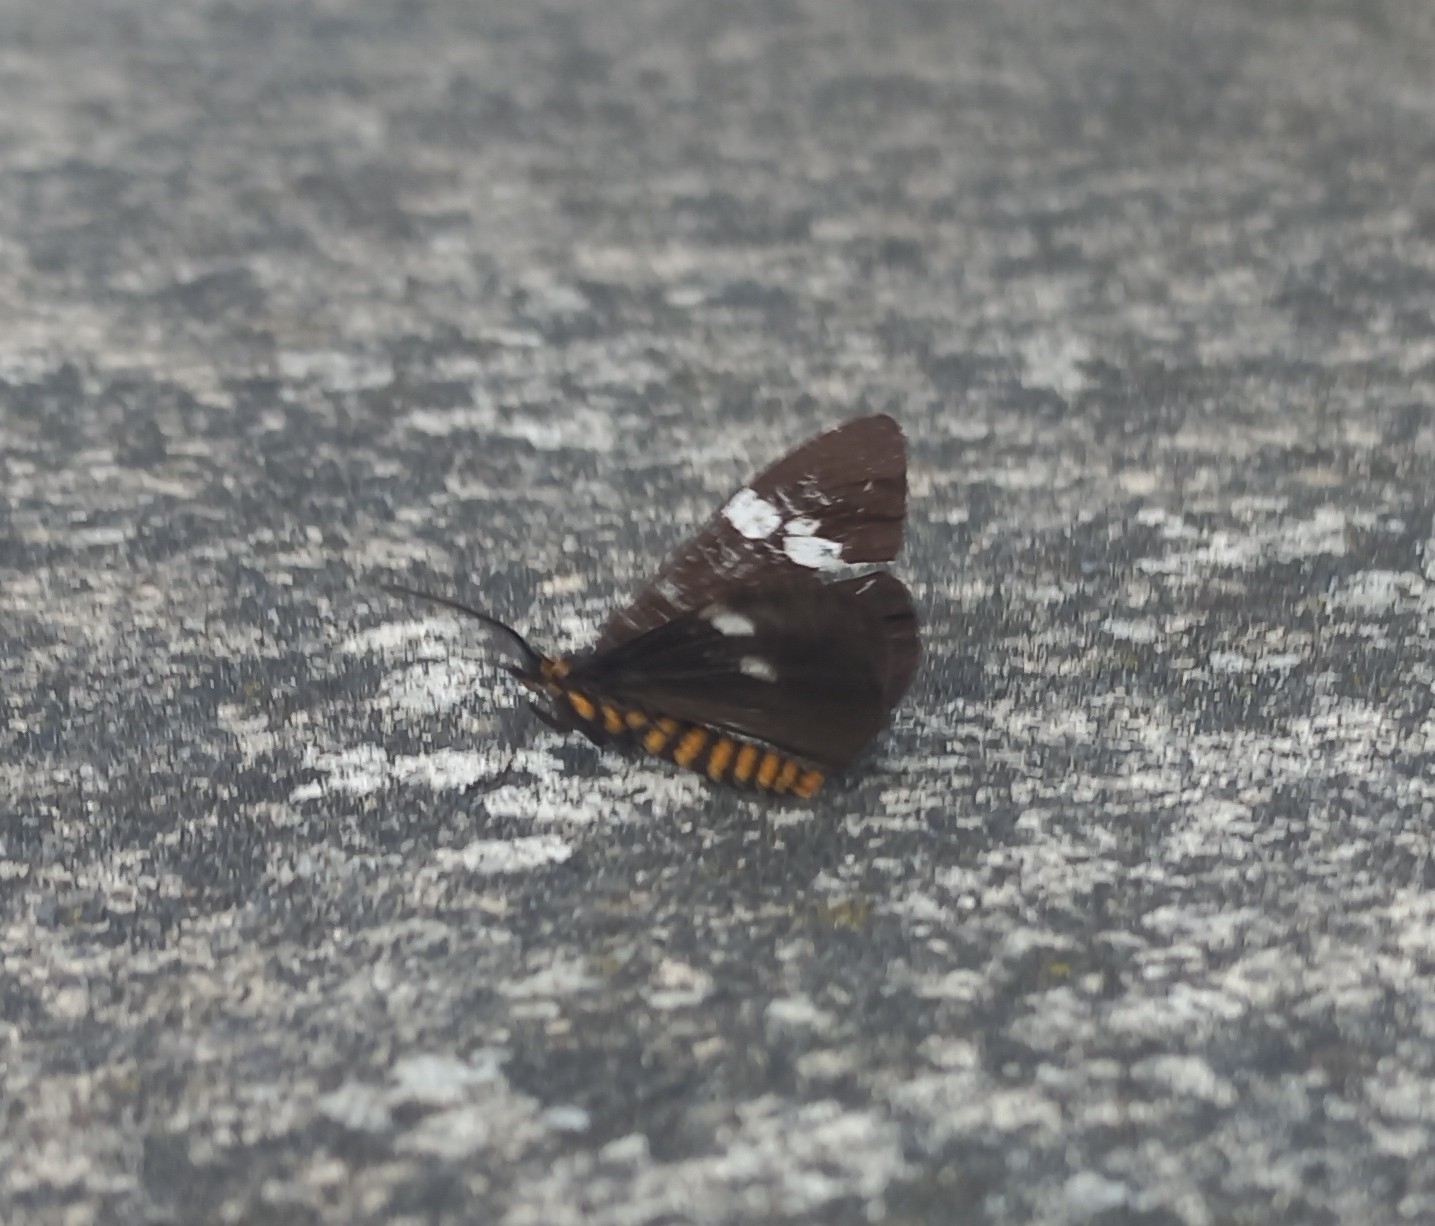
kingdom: Animalia
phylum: Arthropoda
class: Insecta
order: Lepidoptera
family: Erebidae
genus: Nyctemera
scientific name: Nyctemera annulatum
